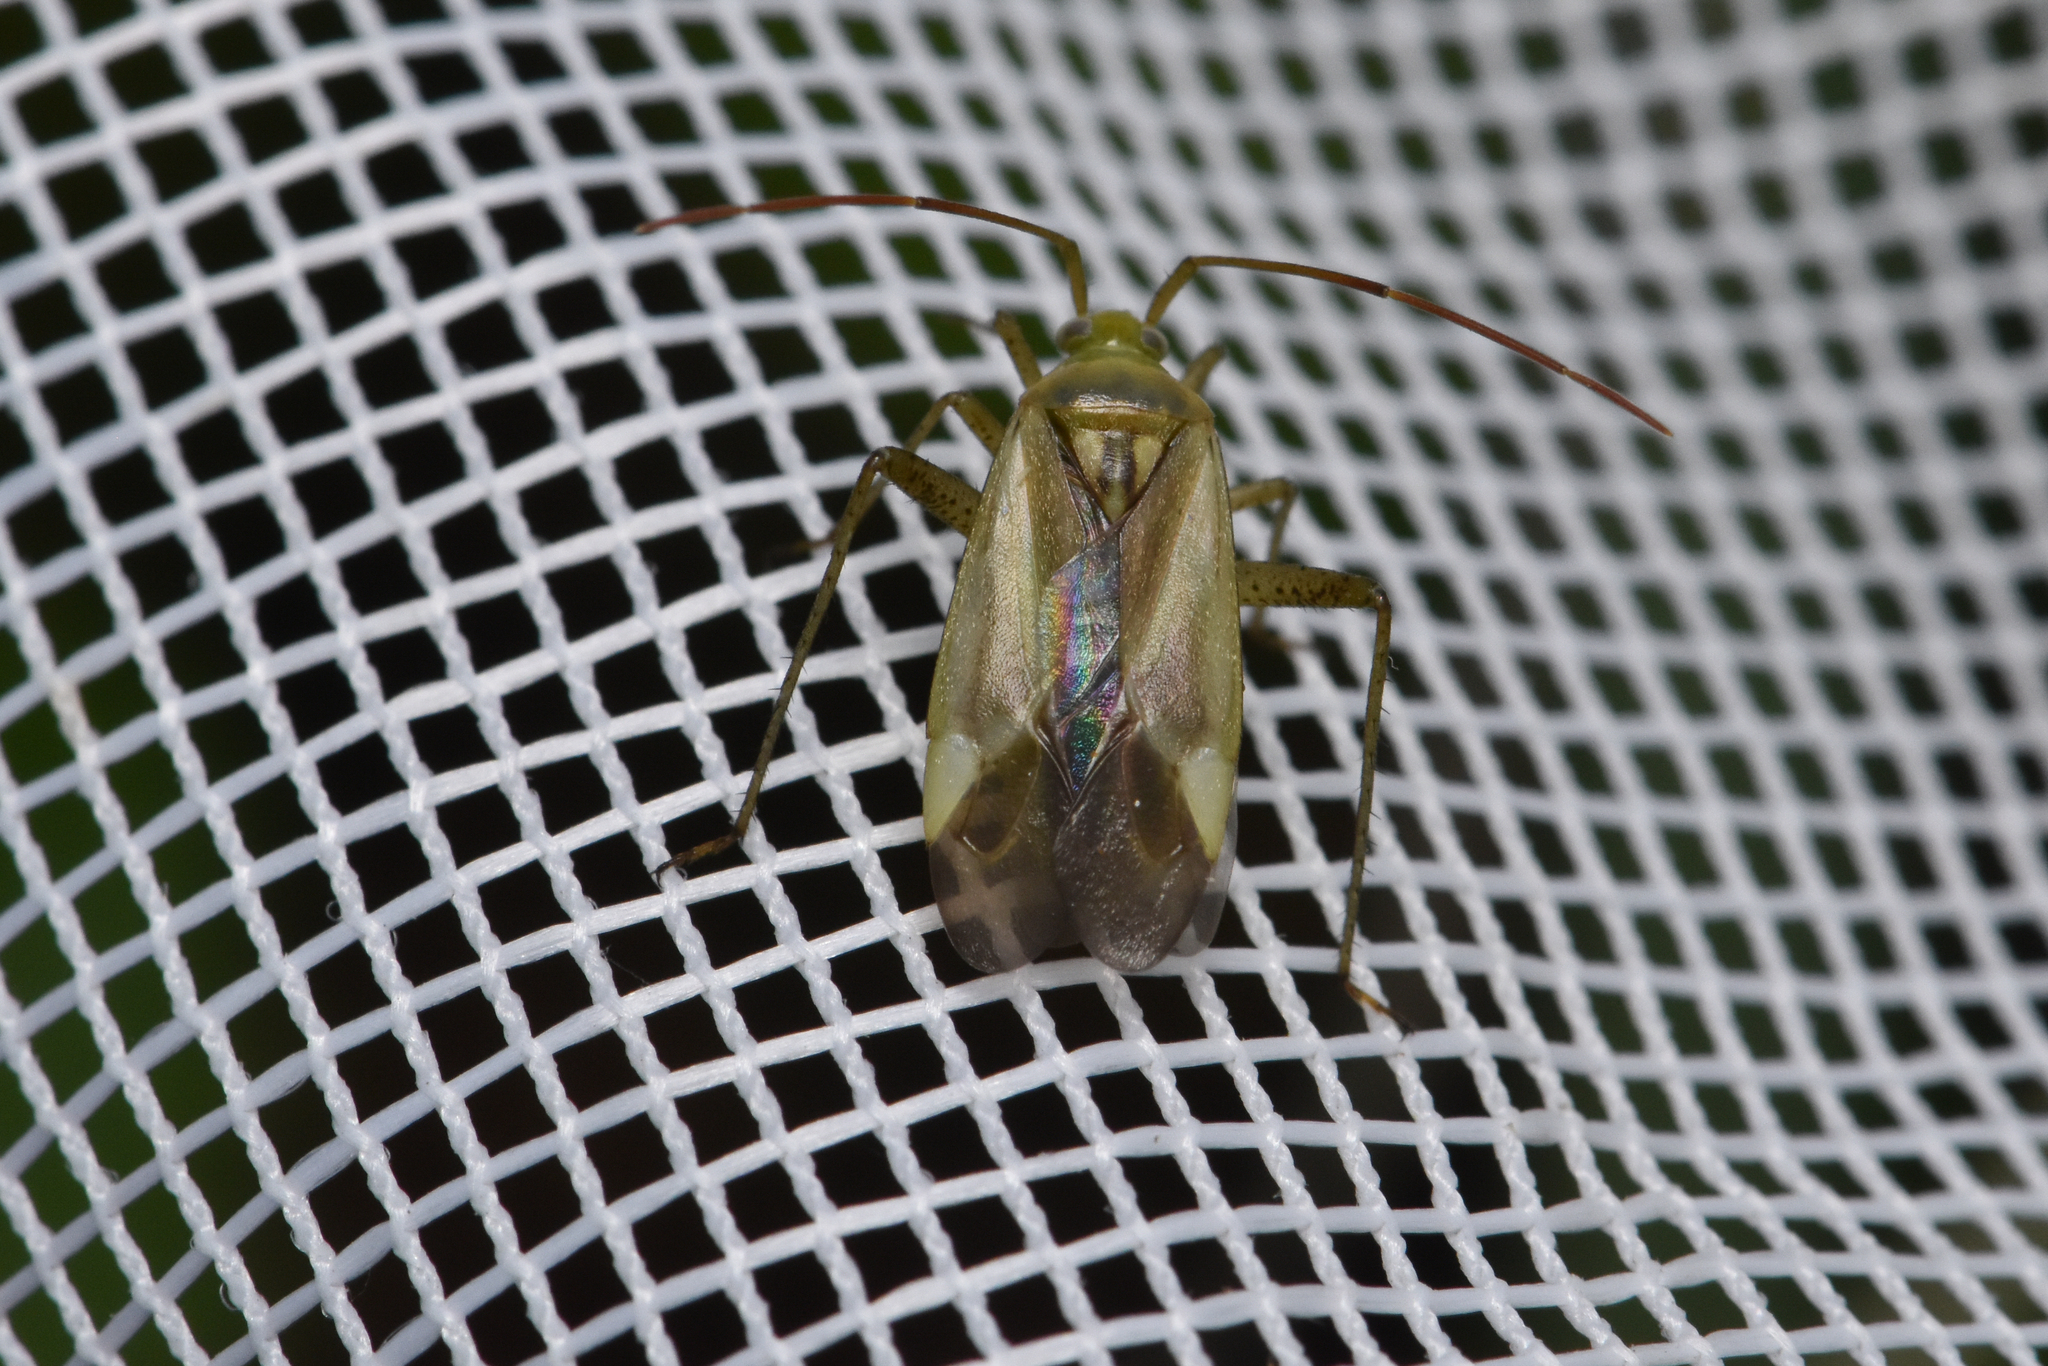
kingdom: Animalia
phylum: Arthropoda
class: Insecta
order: Hemiptera
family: Miridae
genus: Adelphocoris
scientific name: Adelphocoris lineolatus
